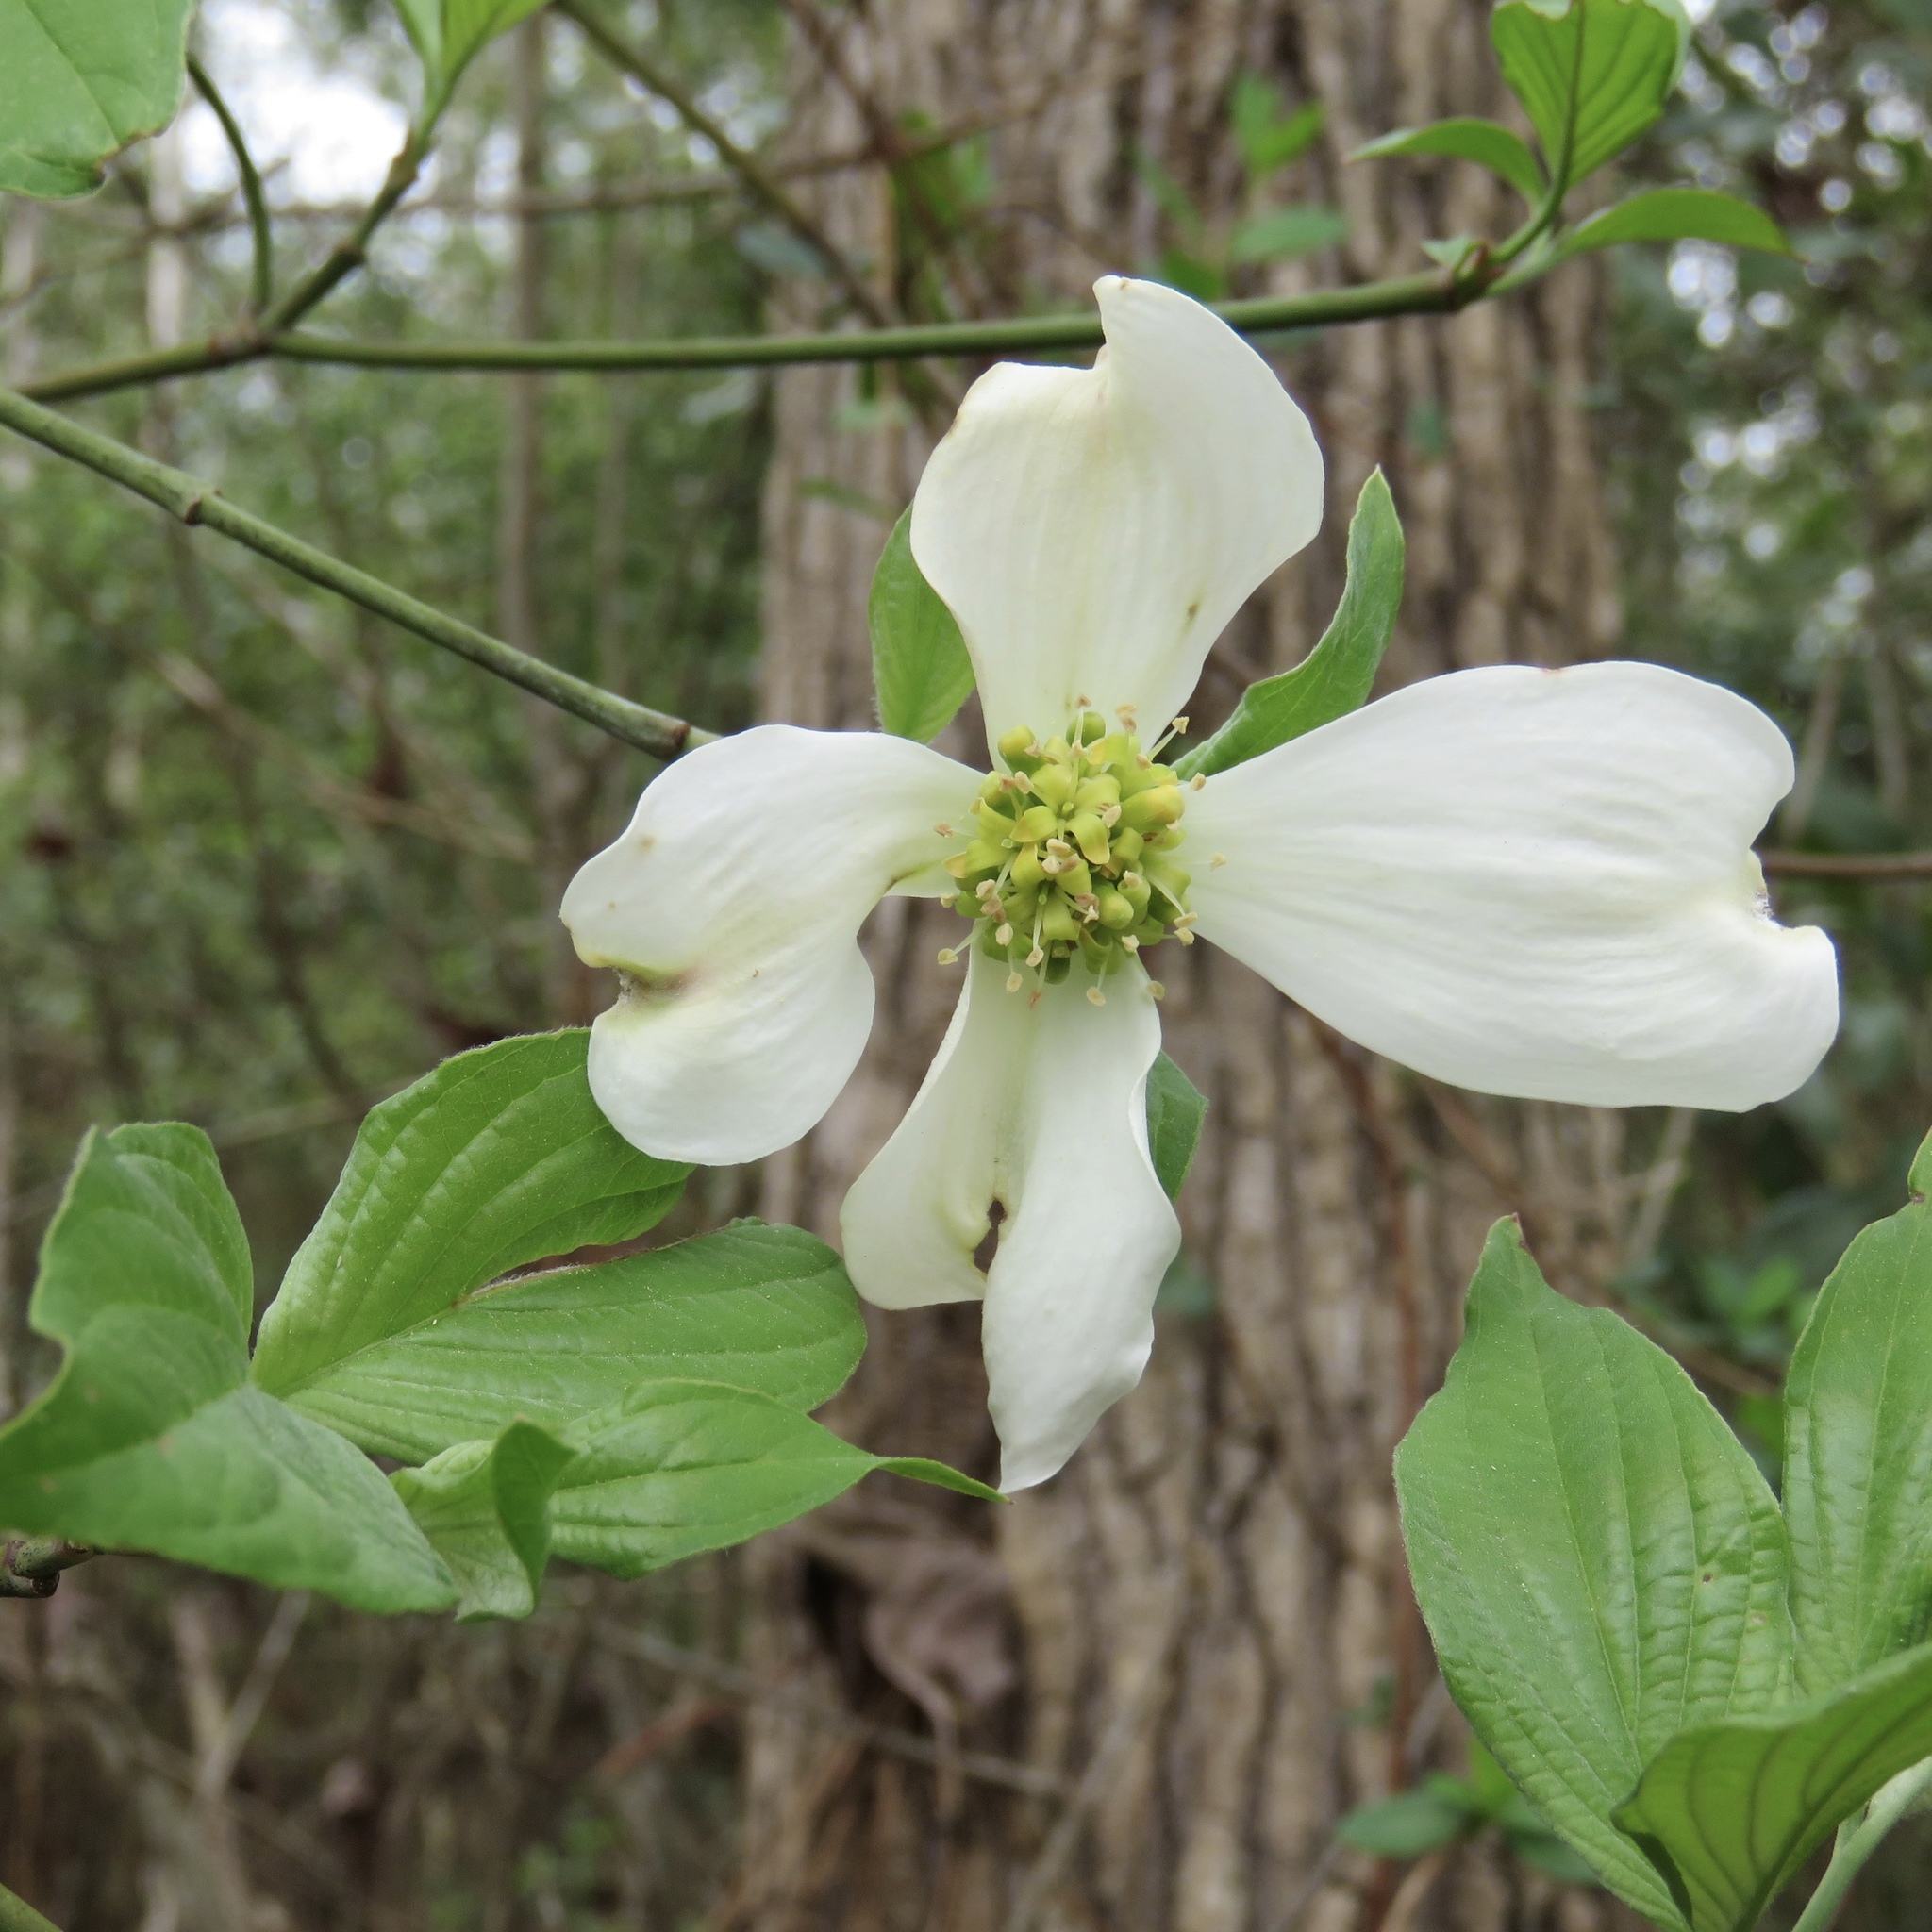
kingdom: Plantae
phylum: Tracheophyta
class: Magnoliopsida
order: Cornales
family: Cornaceae
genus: Cornus
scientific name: Cornus florida
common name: Flowering dogwood
